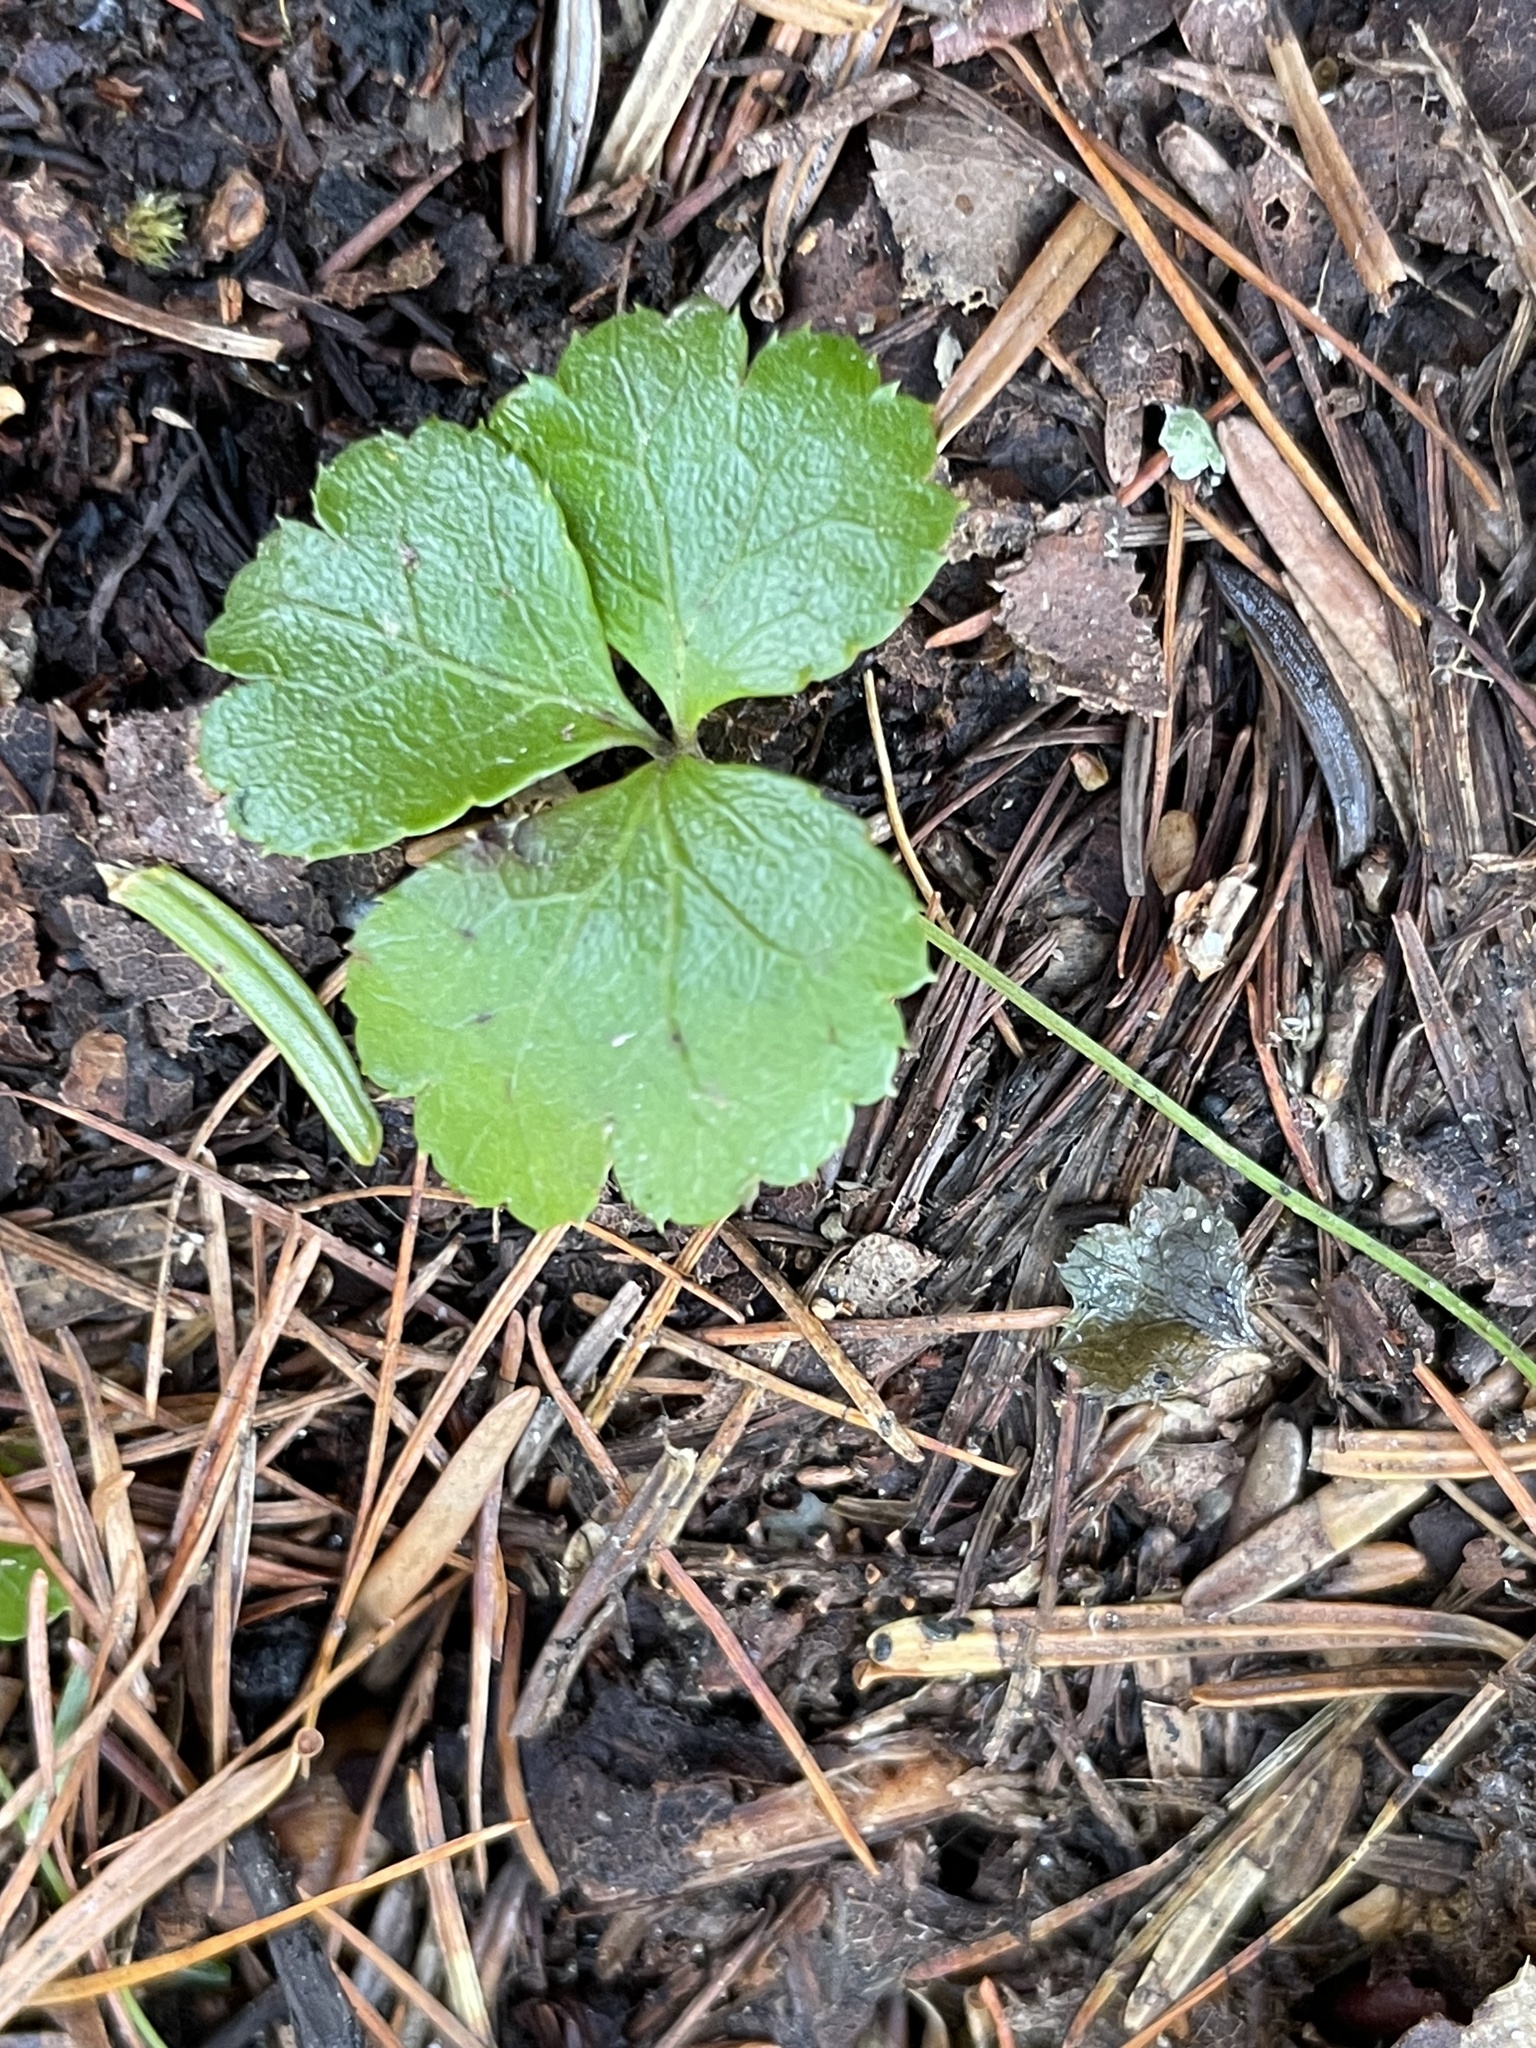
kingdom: Plantae
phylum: Tracheophyta
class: Magnoliopsida
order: Ranunculales
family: Ranunculaceae
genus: Coptis
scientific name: Coptis trifolia
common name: Canker-root
